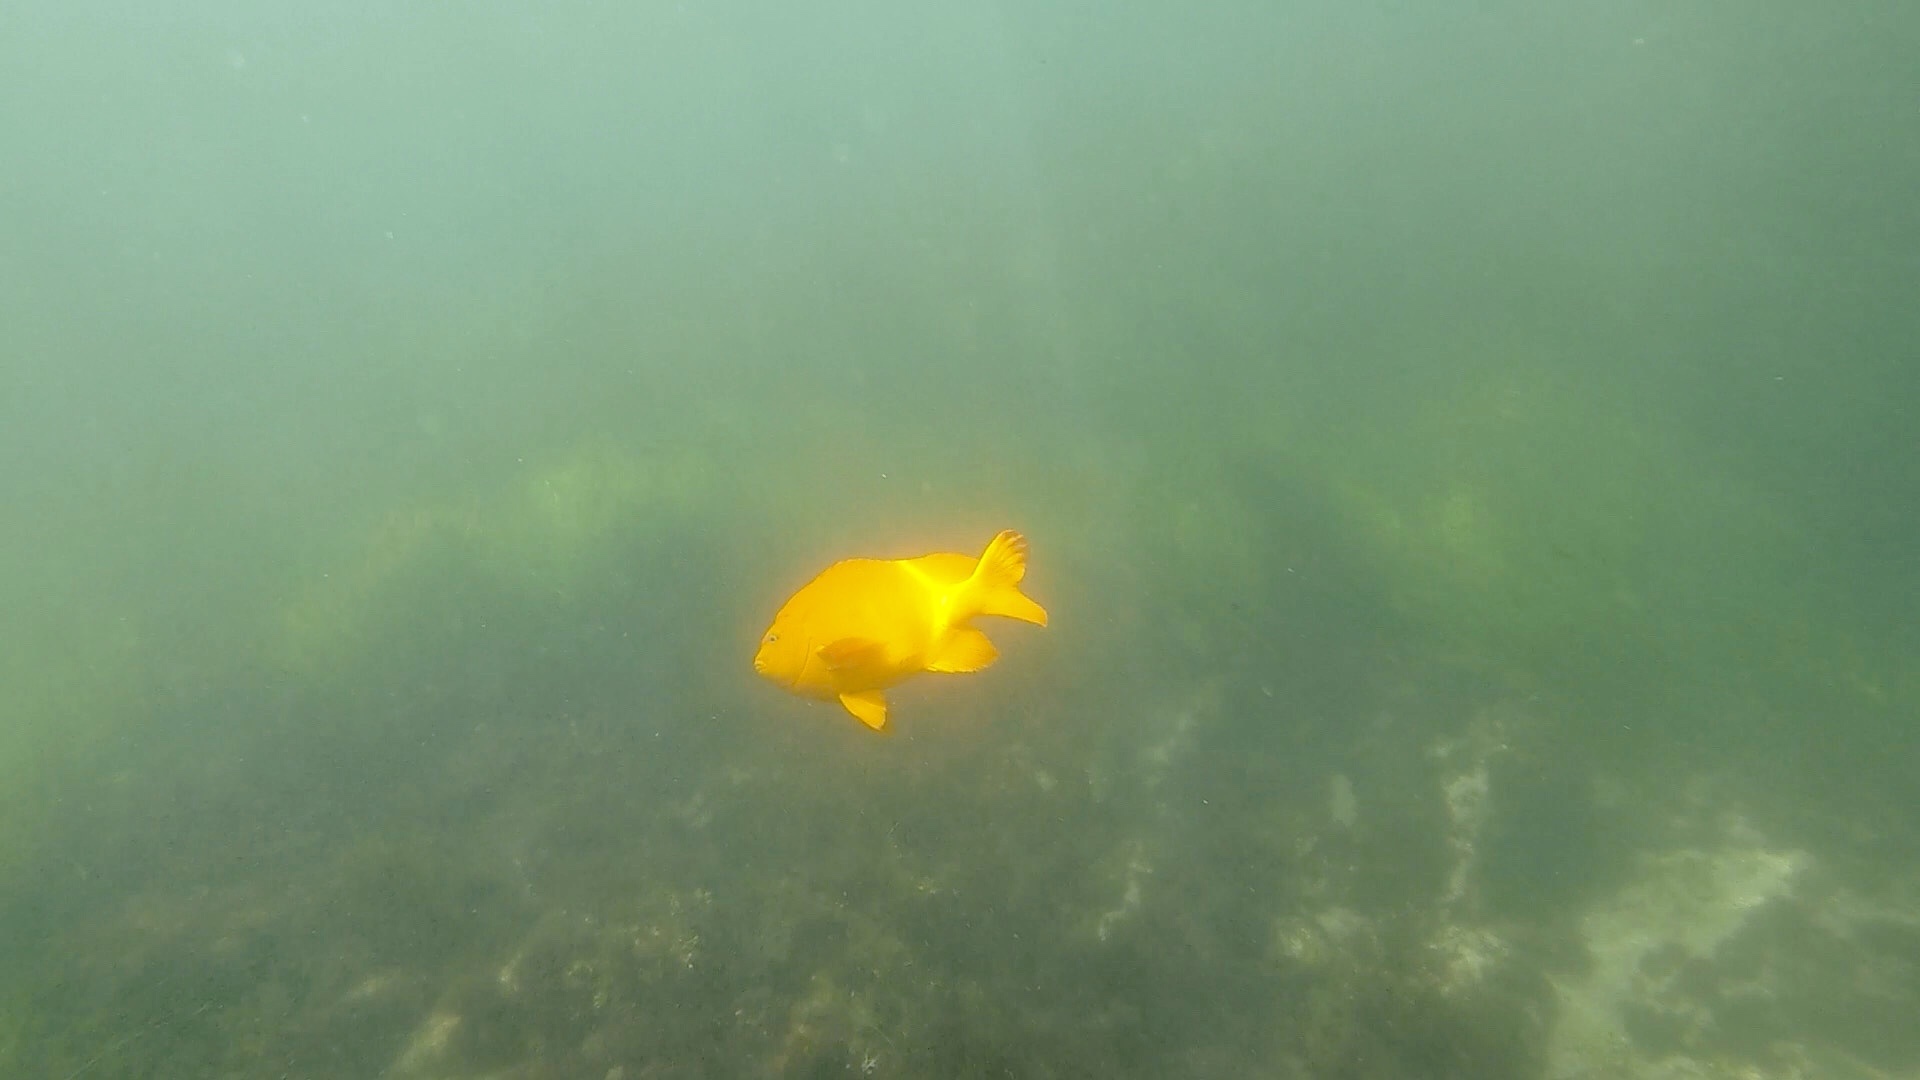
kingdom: Animalia
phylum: Chordata
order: Perciformes
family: Pomacentridae
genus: Hypsypops
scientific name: Hypsypops rubicundus
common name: Garibaldi
